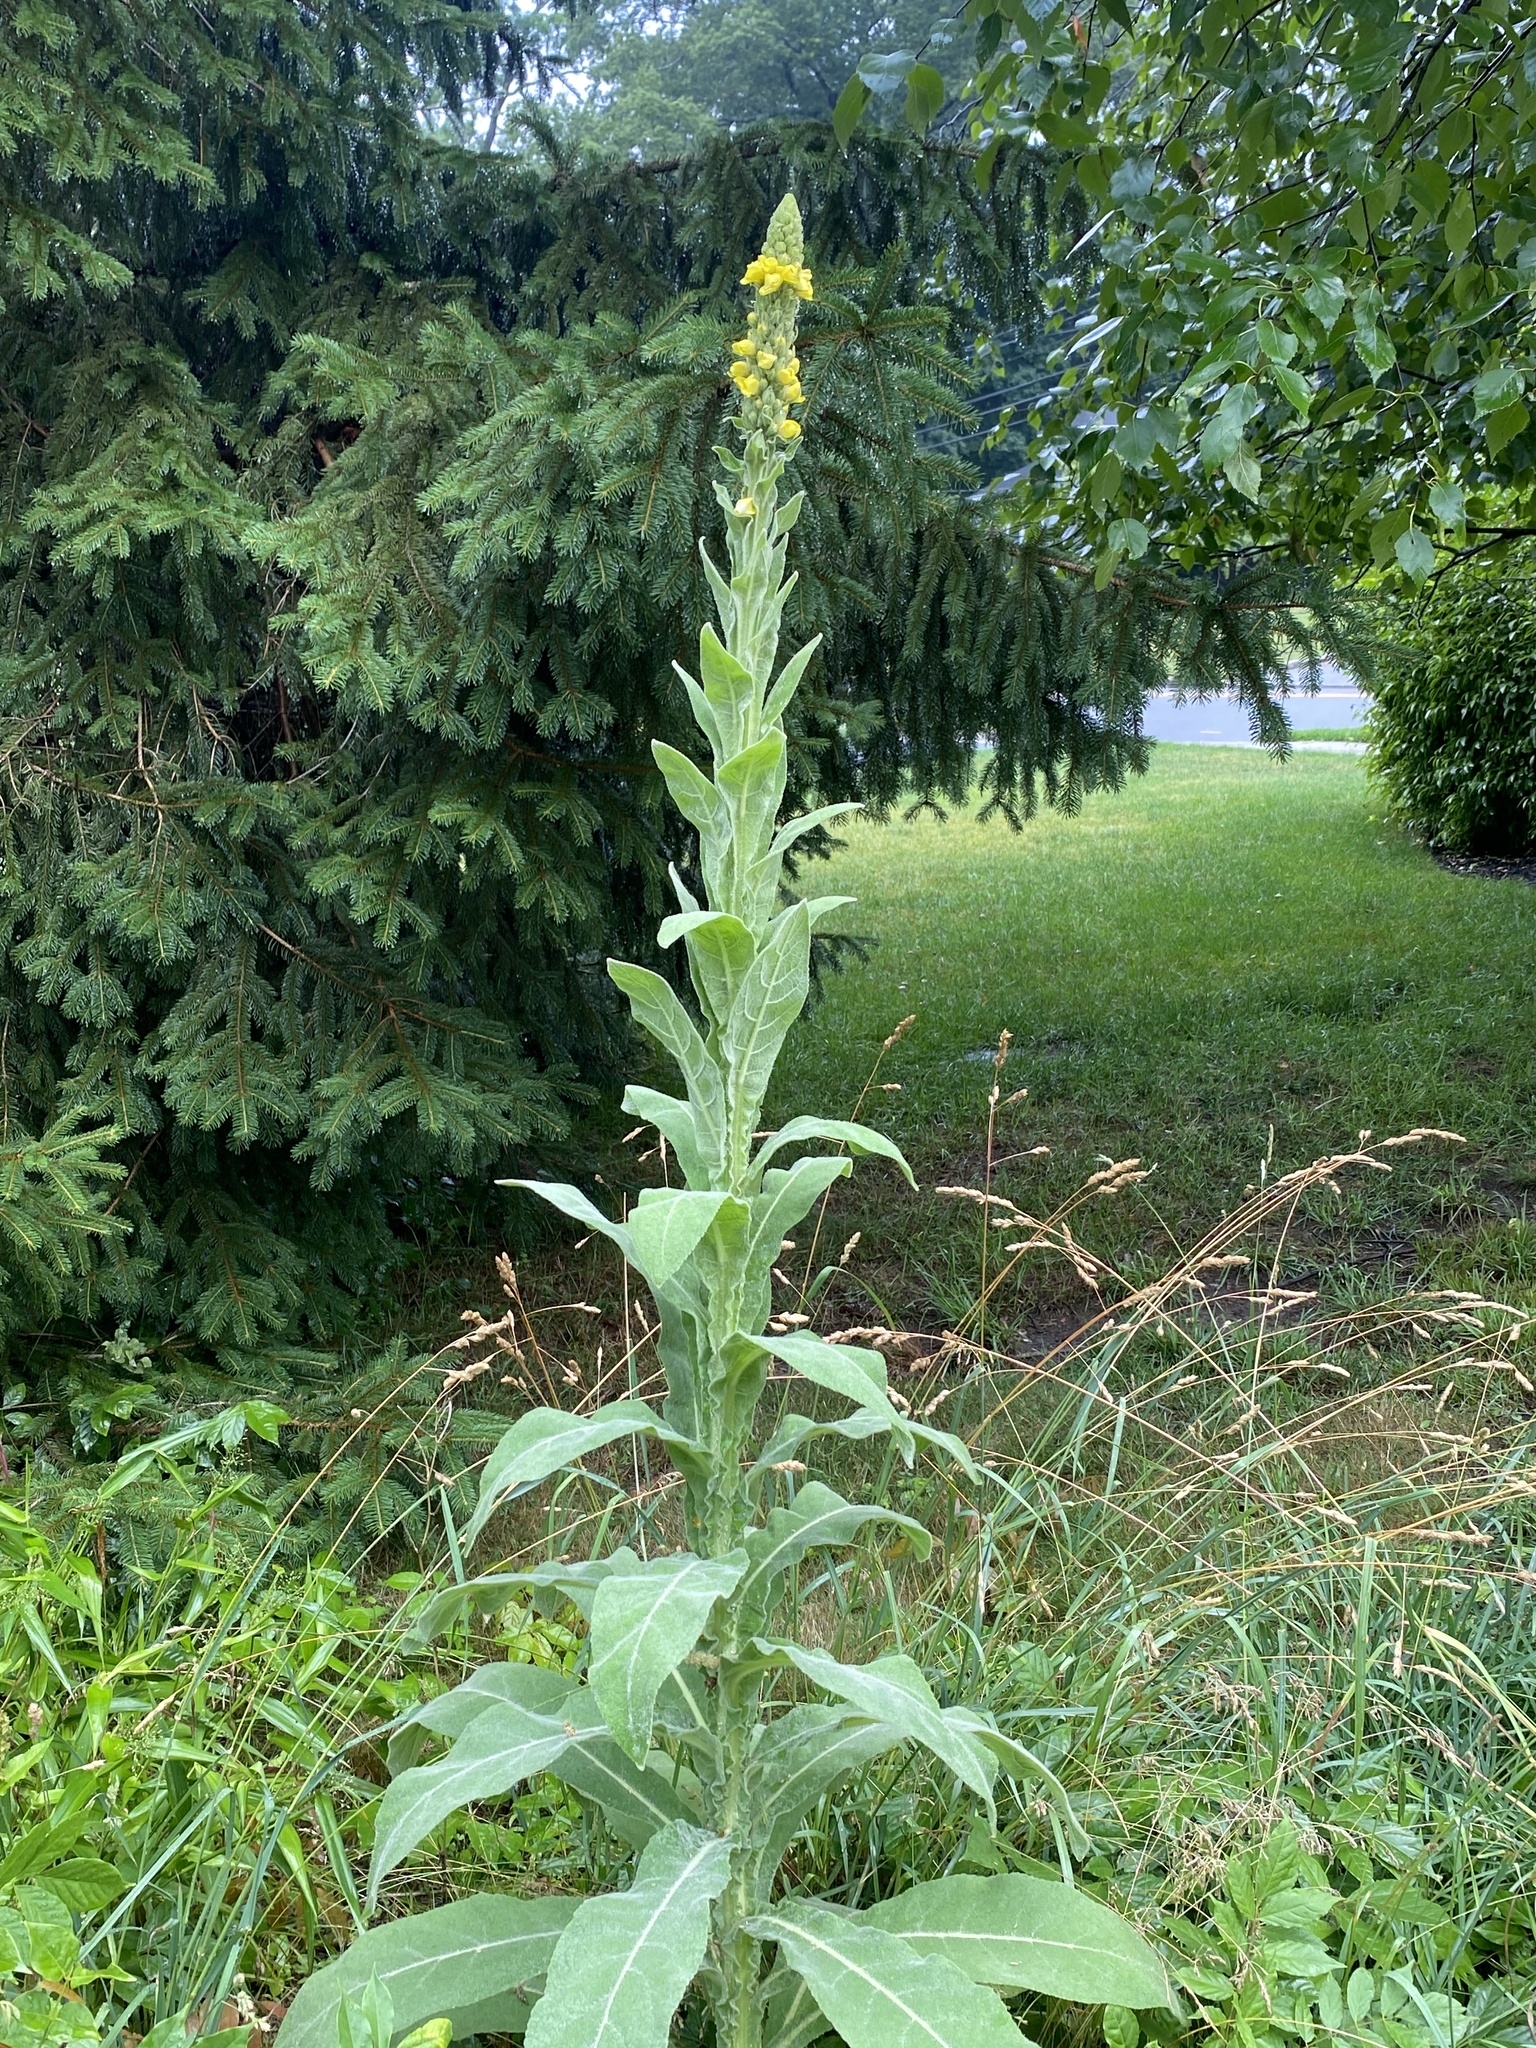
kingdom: Plantae
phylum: Tracheophyta
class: Magnoliopsida
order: Lamiales
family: Scrophulariaceae
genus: Verbascum
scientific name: Verbascum thapsus
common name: Common mullein
